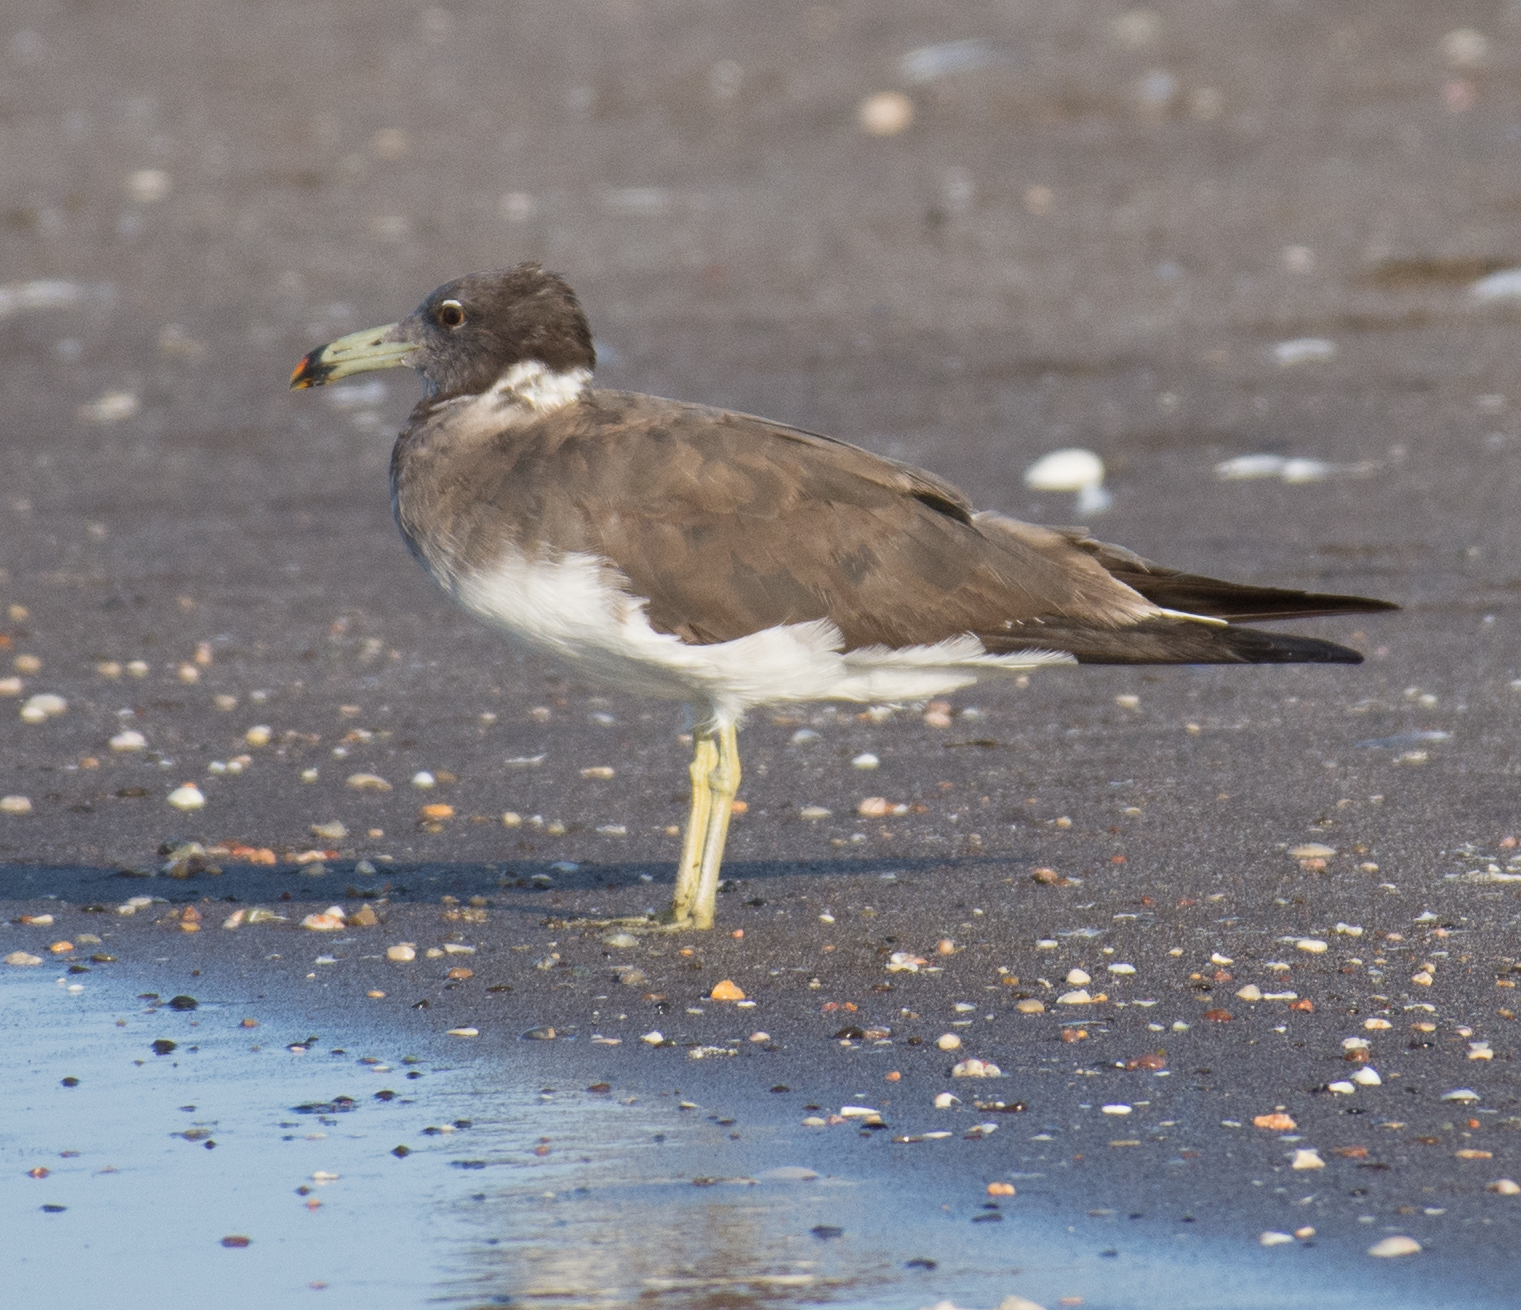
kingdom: Animalia
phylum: Chordata
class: Aves
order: Charadriiformes
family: Laridae
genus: Ichthyaetus
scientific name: Ichthyaetus hemprichii
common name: Sooty gull
